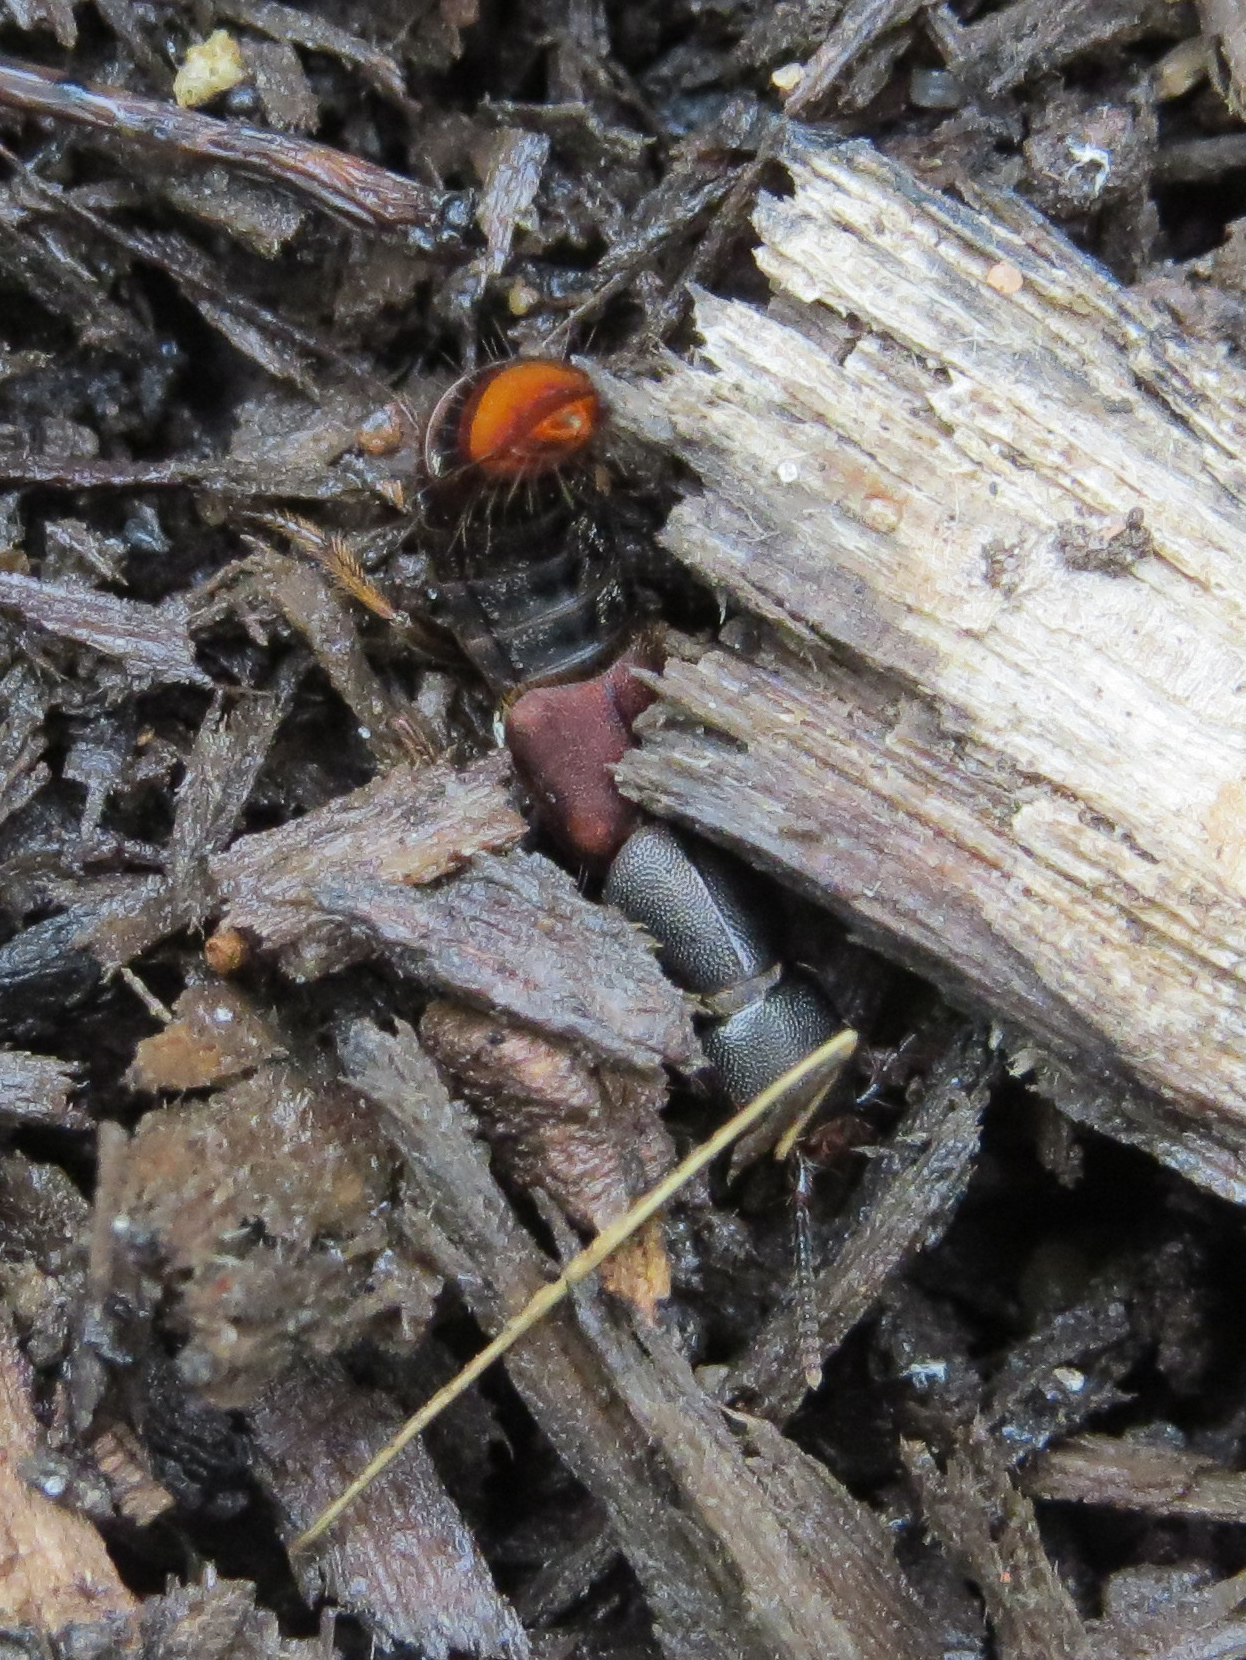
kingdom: Animalia
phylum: Arthropoda
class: Insecta
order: Coleoptera
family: Staphylinidae
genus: Platydracus
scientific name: Platydracus
